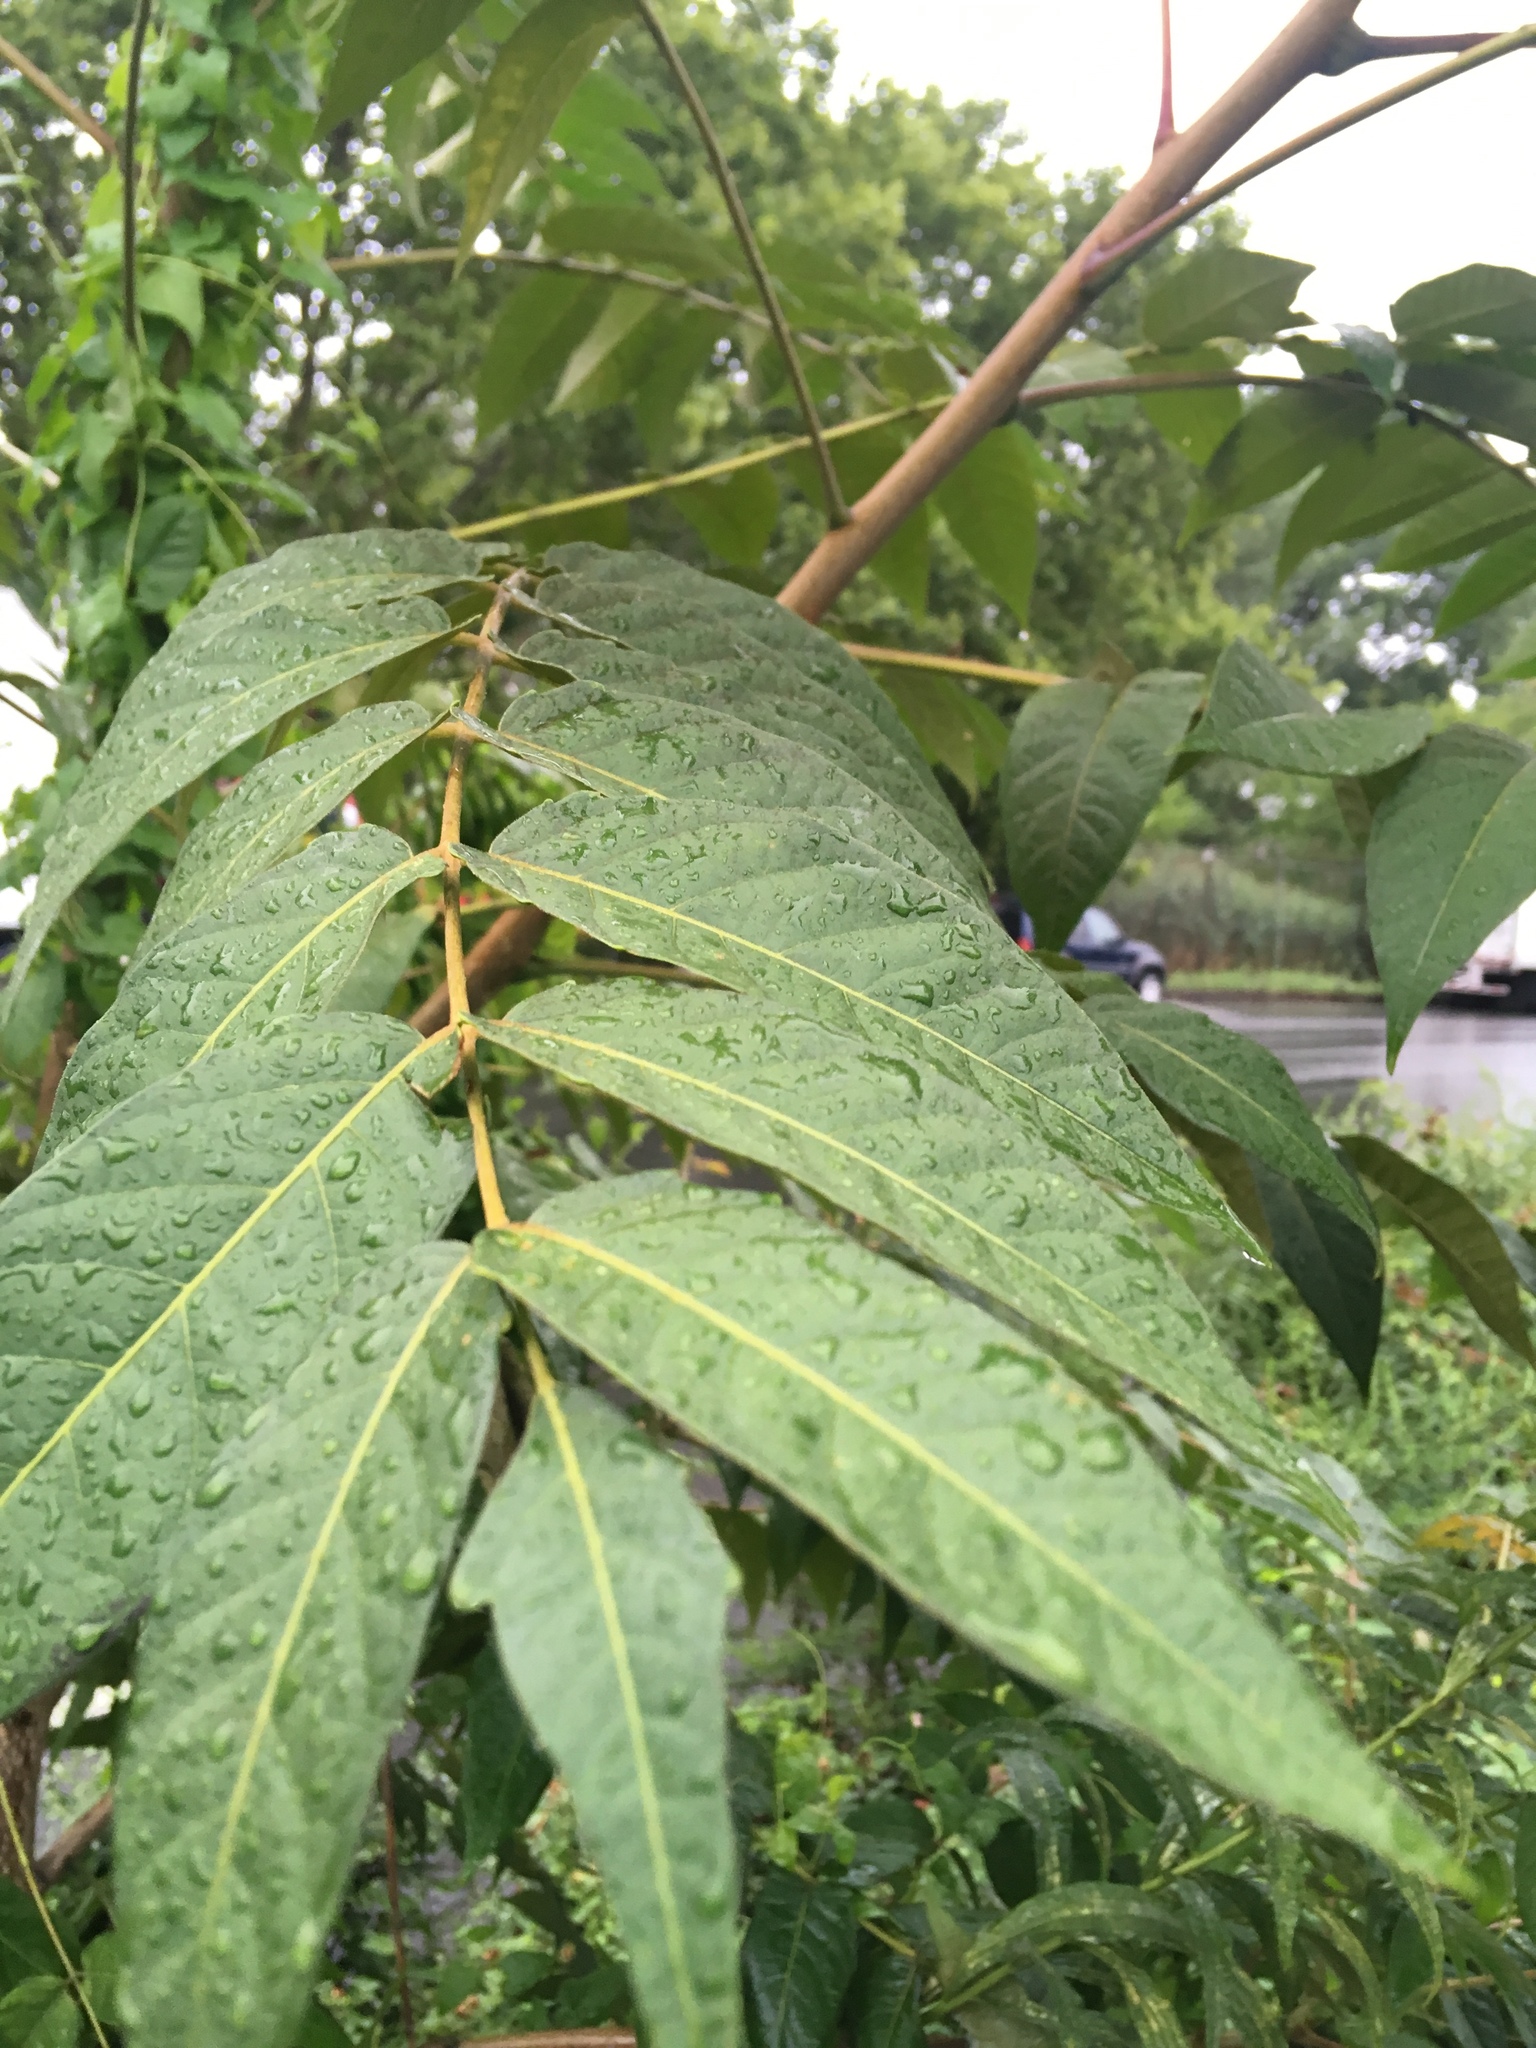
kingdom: Plantae
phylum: Tracheophyta
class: Magnoliopsida
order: Sapindales
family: Simaroubaceae
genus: Ailanthus
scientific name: Ailanthus altissima
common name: Tree-of-heaven
